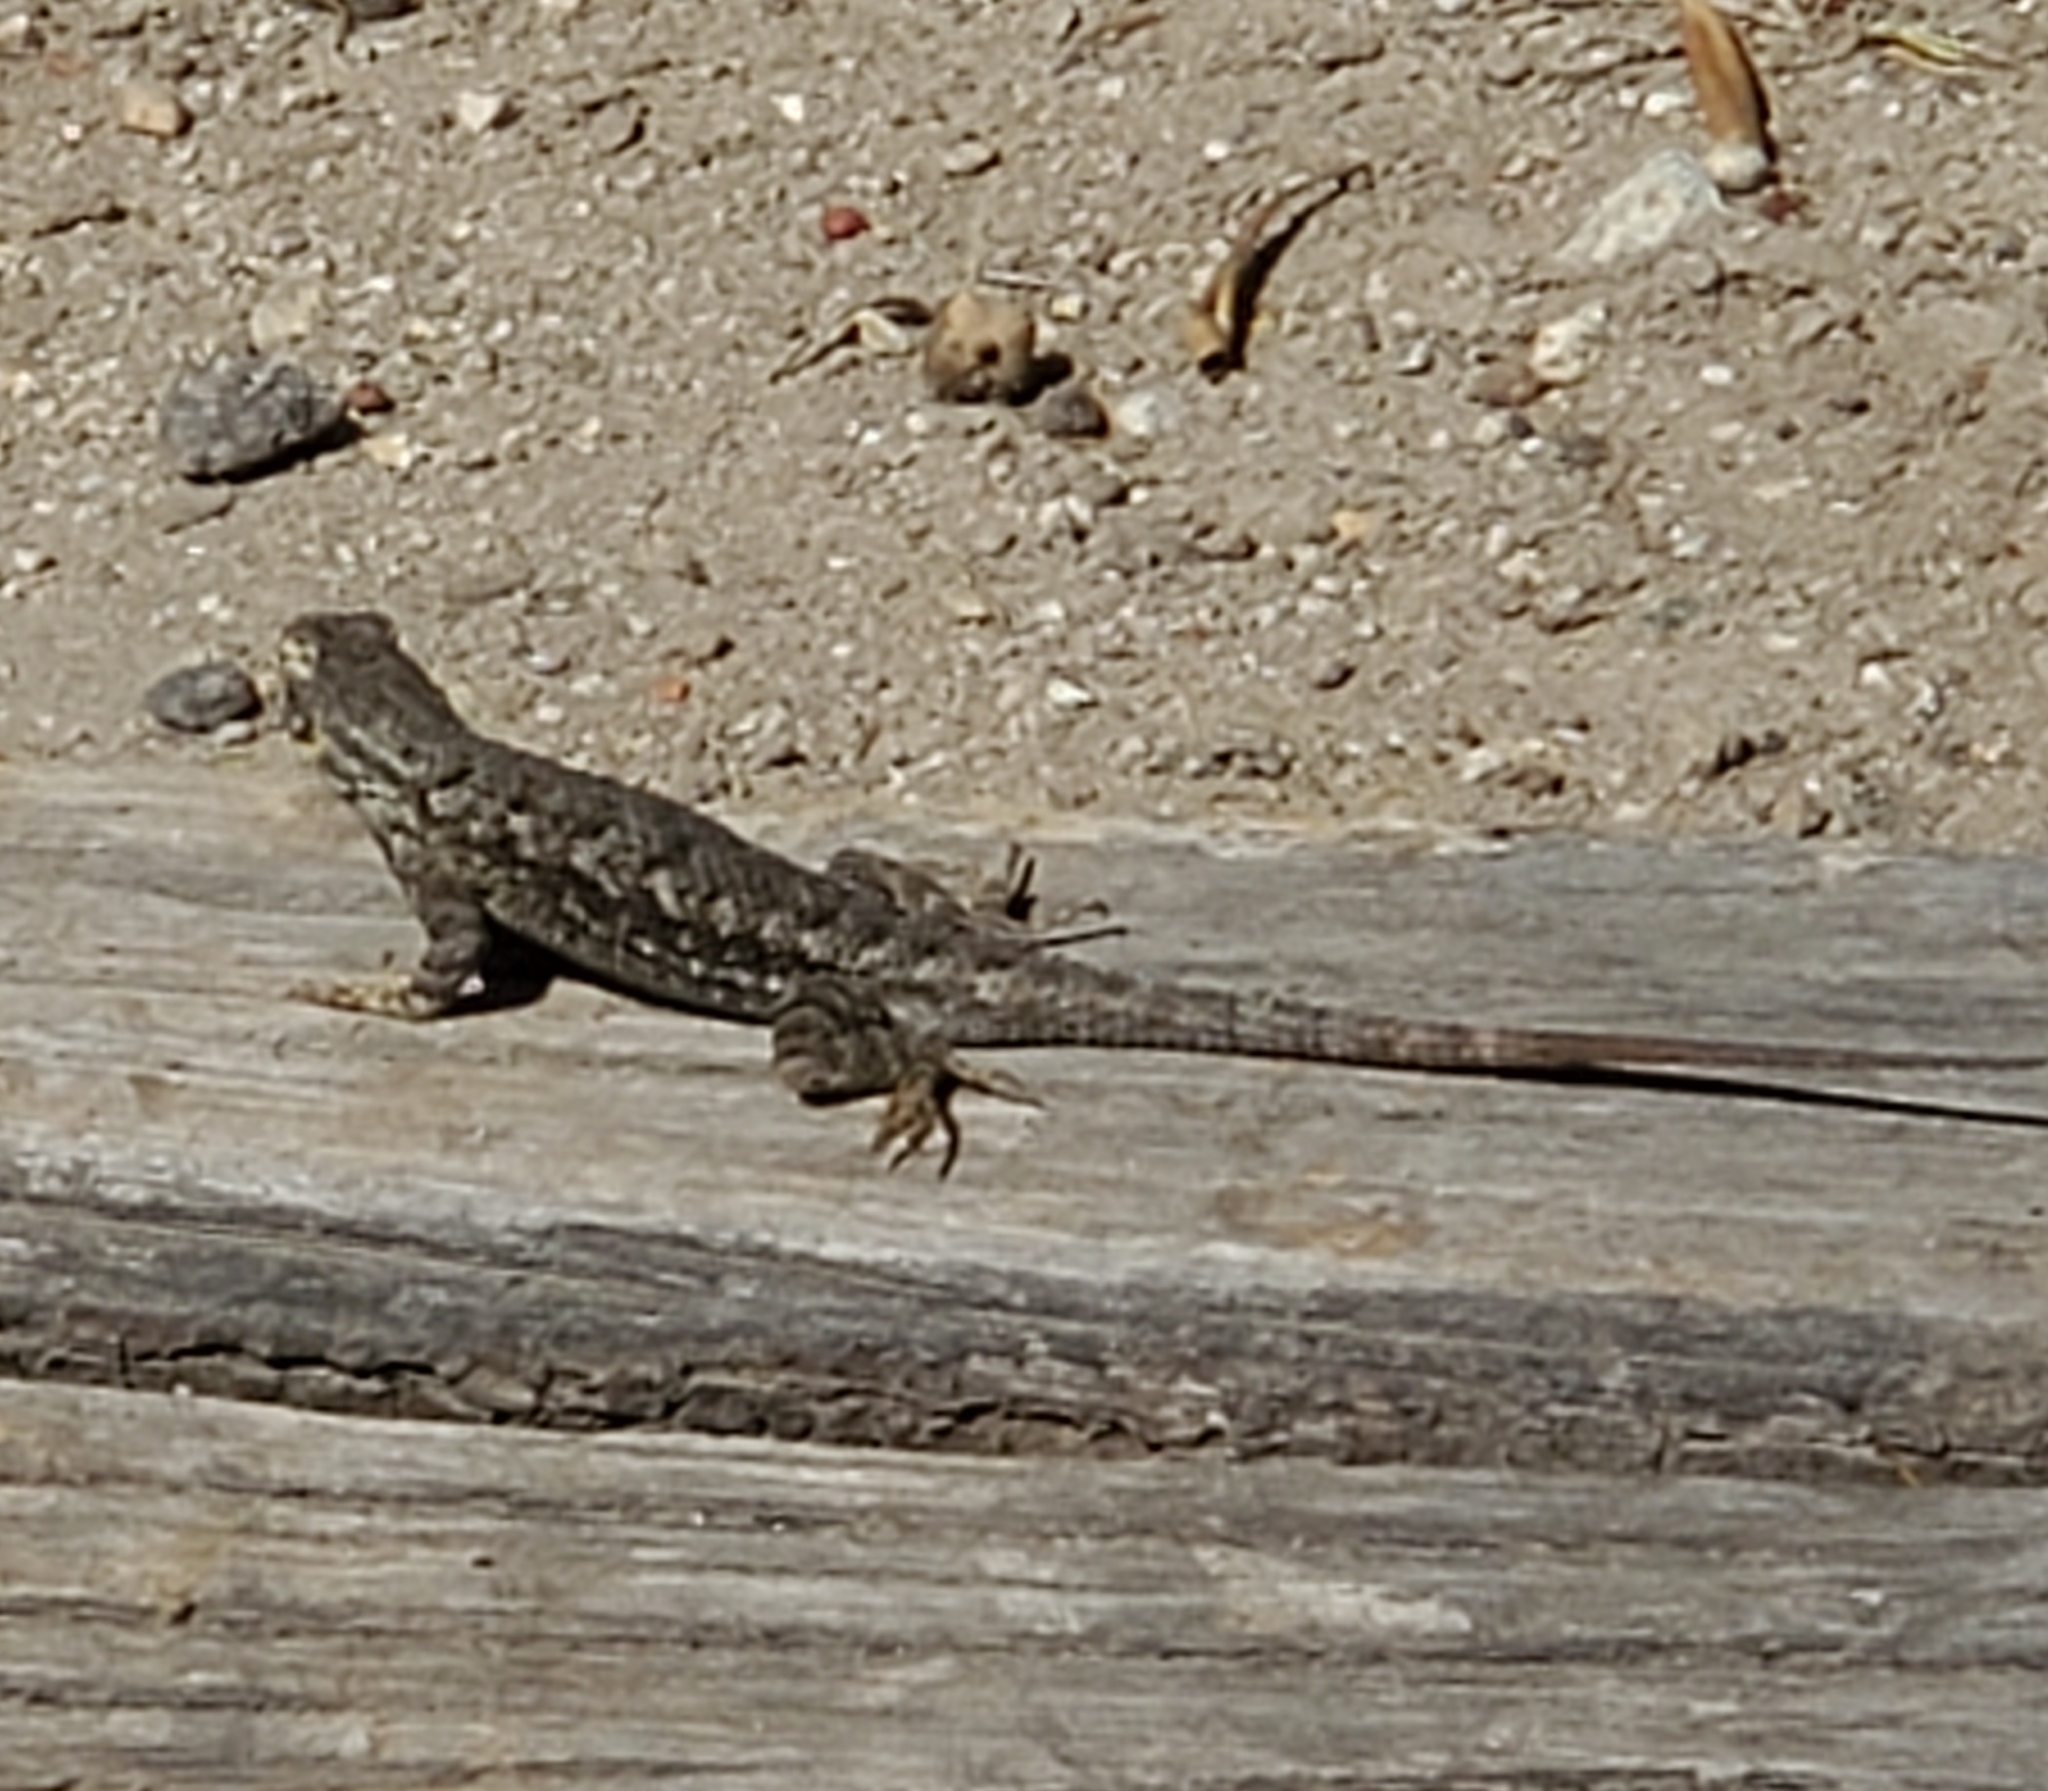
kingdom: Animalia
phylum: Chordata
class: Squamata
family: Phrynosomatidae
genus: Sceloporus
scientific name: Sceloporus occidentalis
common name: Western fence lizard
